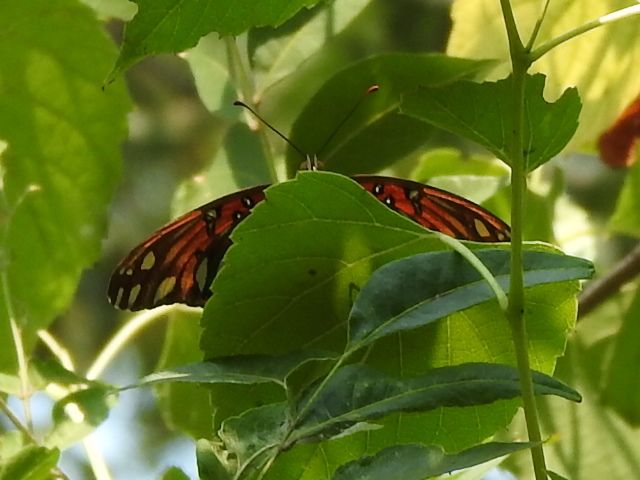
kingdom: Animalia
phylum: Arthropoda
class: Insecta
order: Lepidoptera
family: Nymphalidae
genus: Dione
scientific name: Dione vanillae
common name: Gulf fritillary
